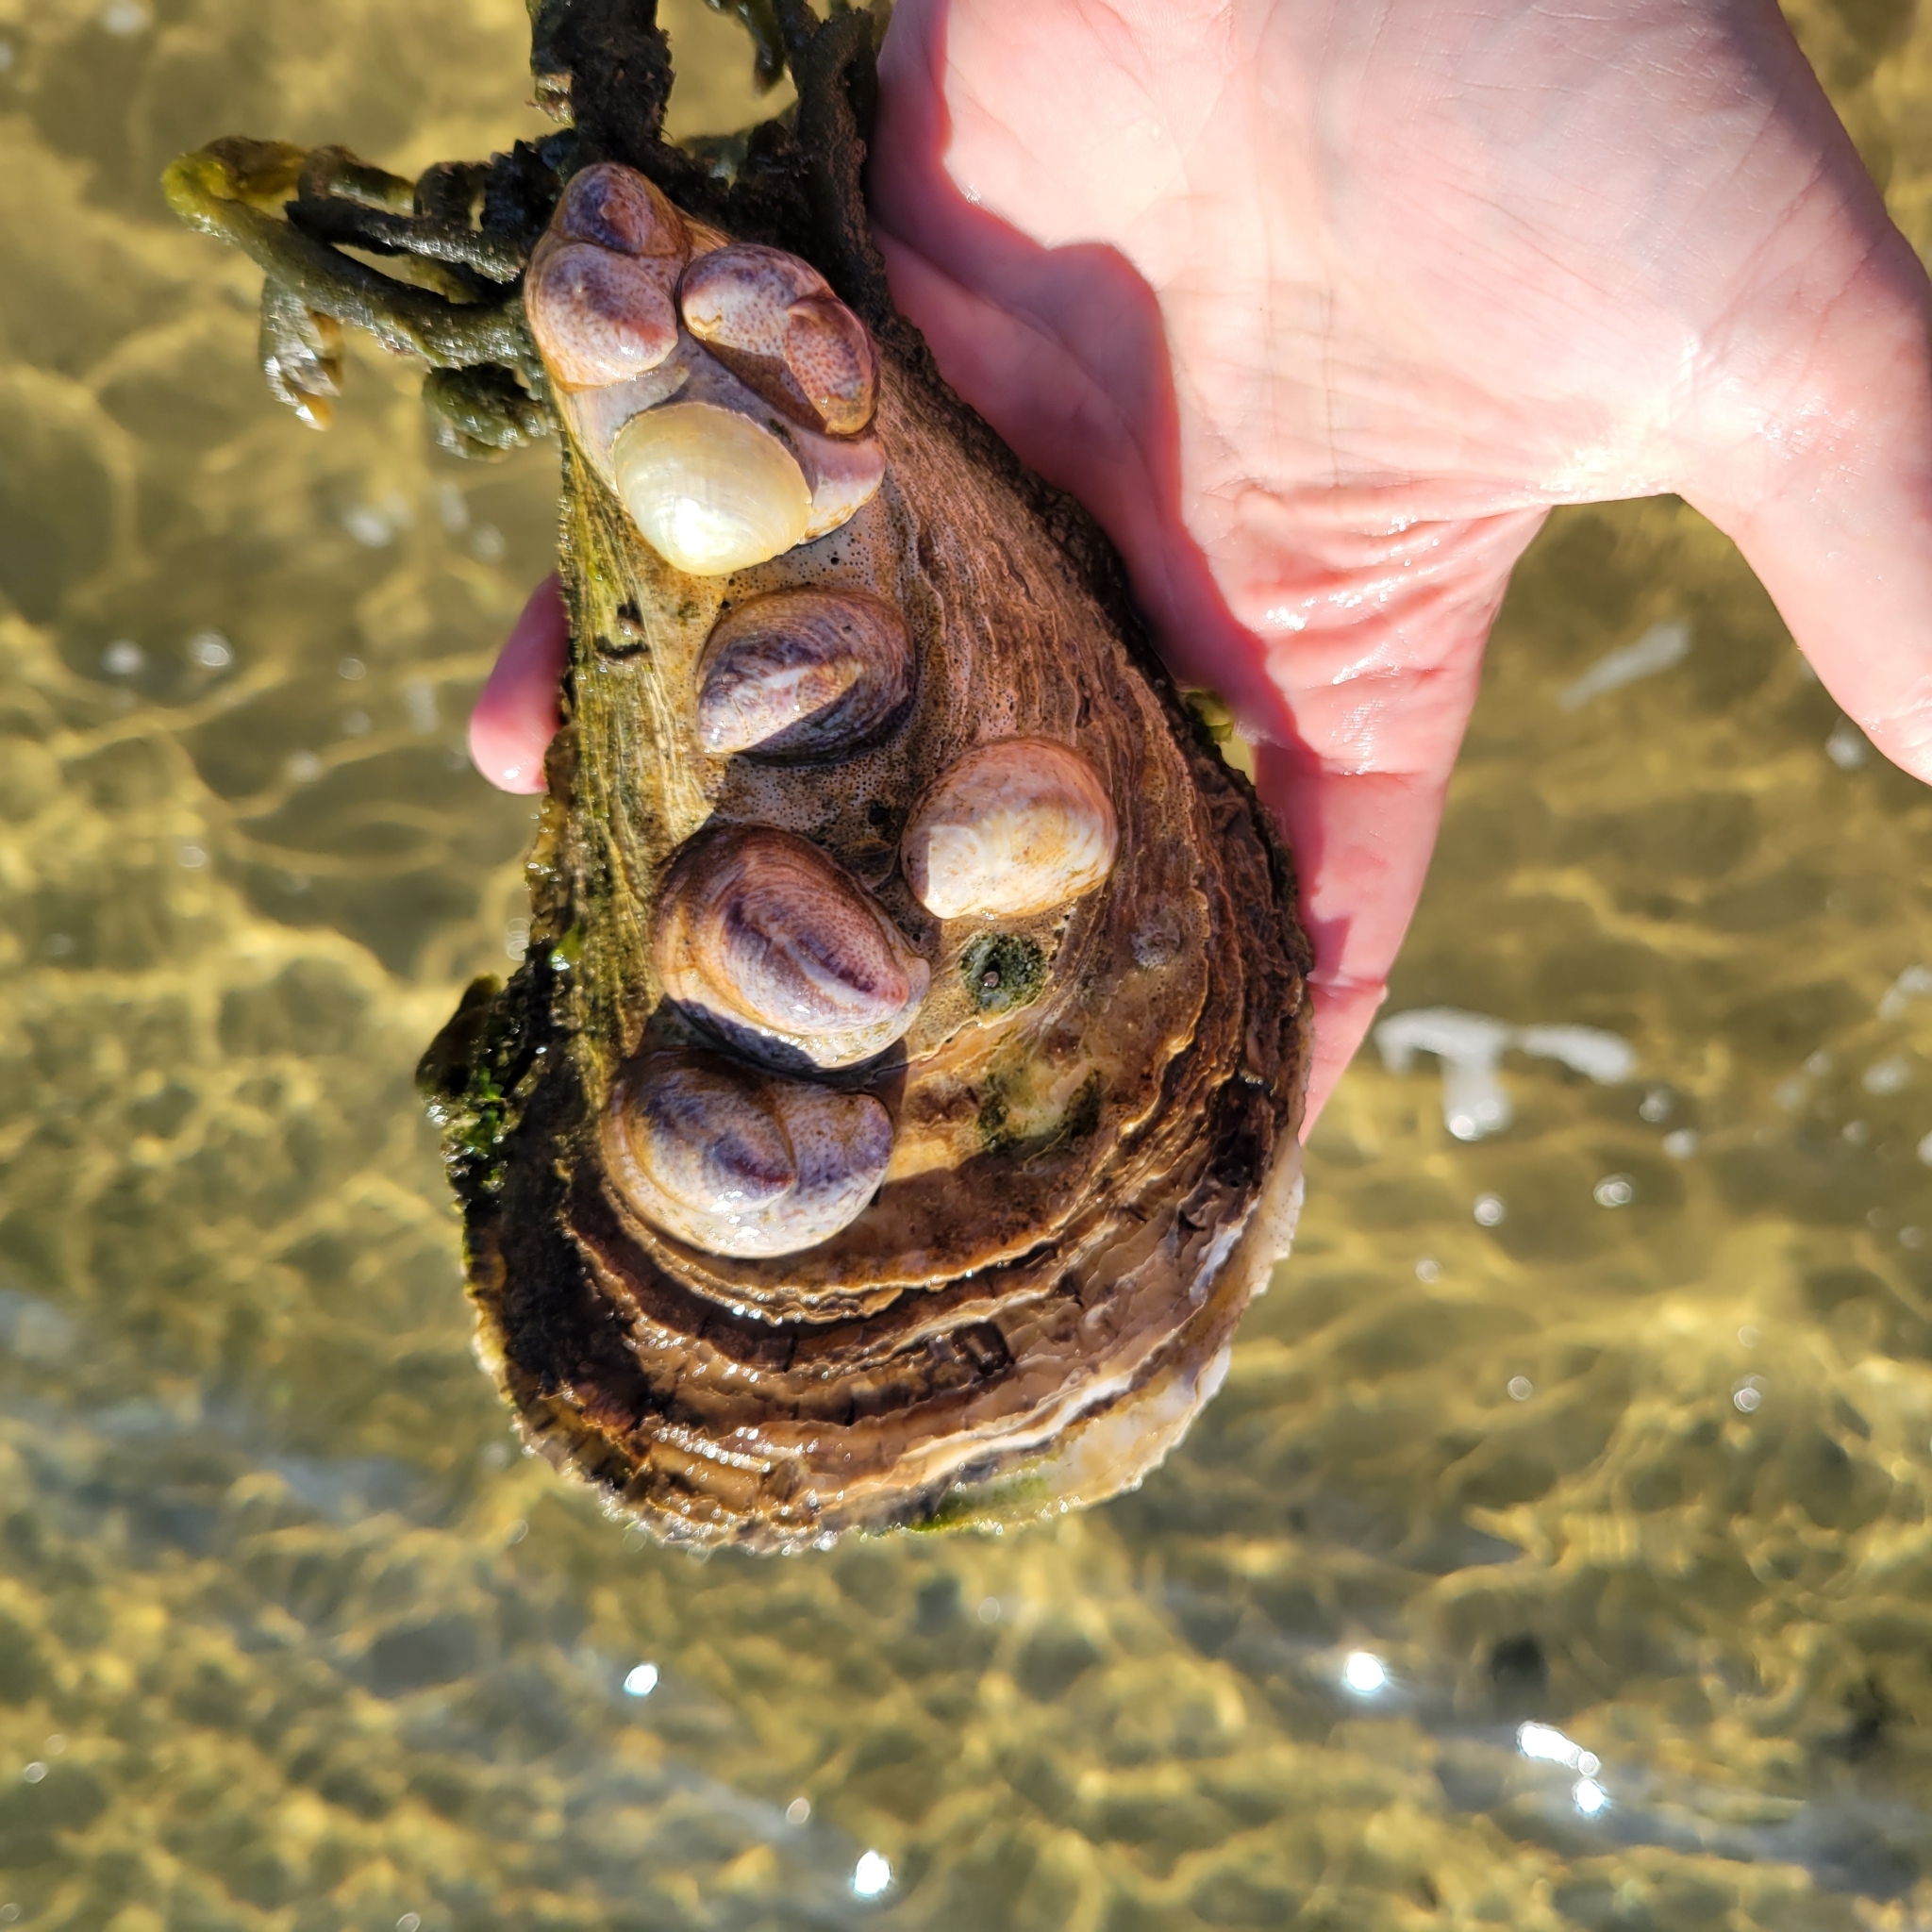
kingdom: Animalia
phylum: Mollusca
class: Bivalvia
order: Ostreida
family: Ostreidae
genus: Crassostrea
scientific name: Crassostrea virginica
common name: American oyster
